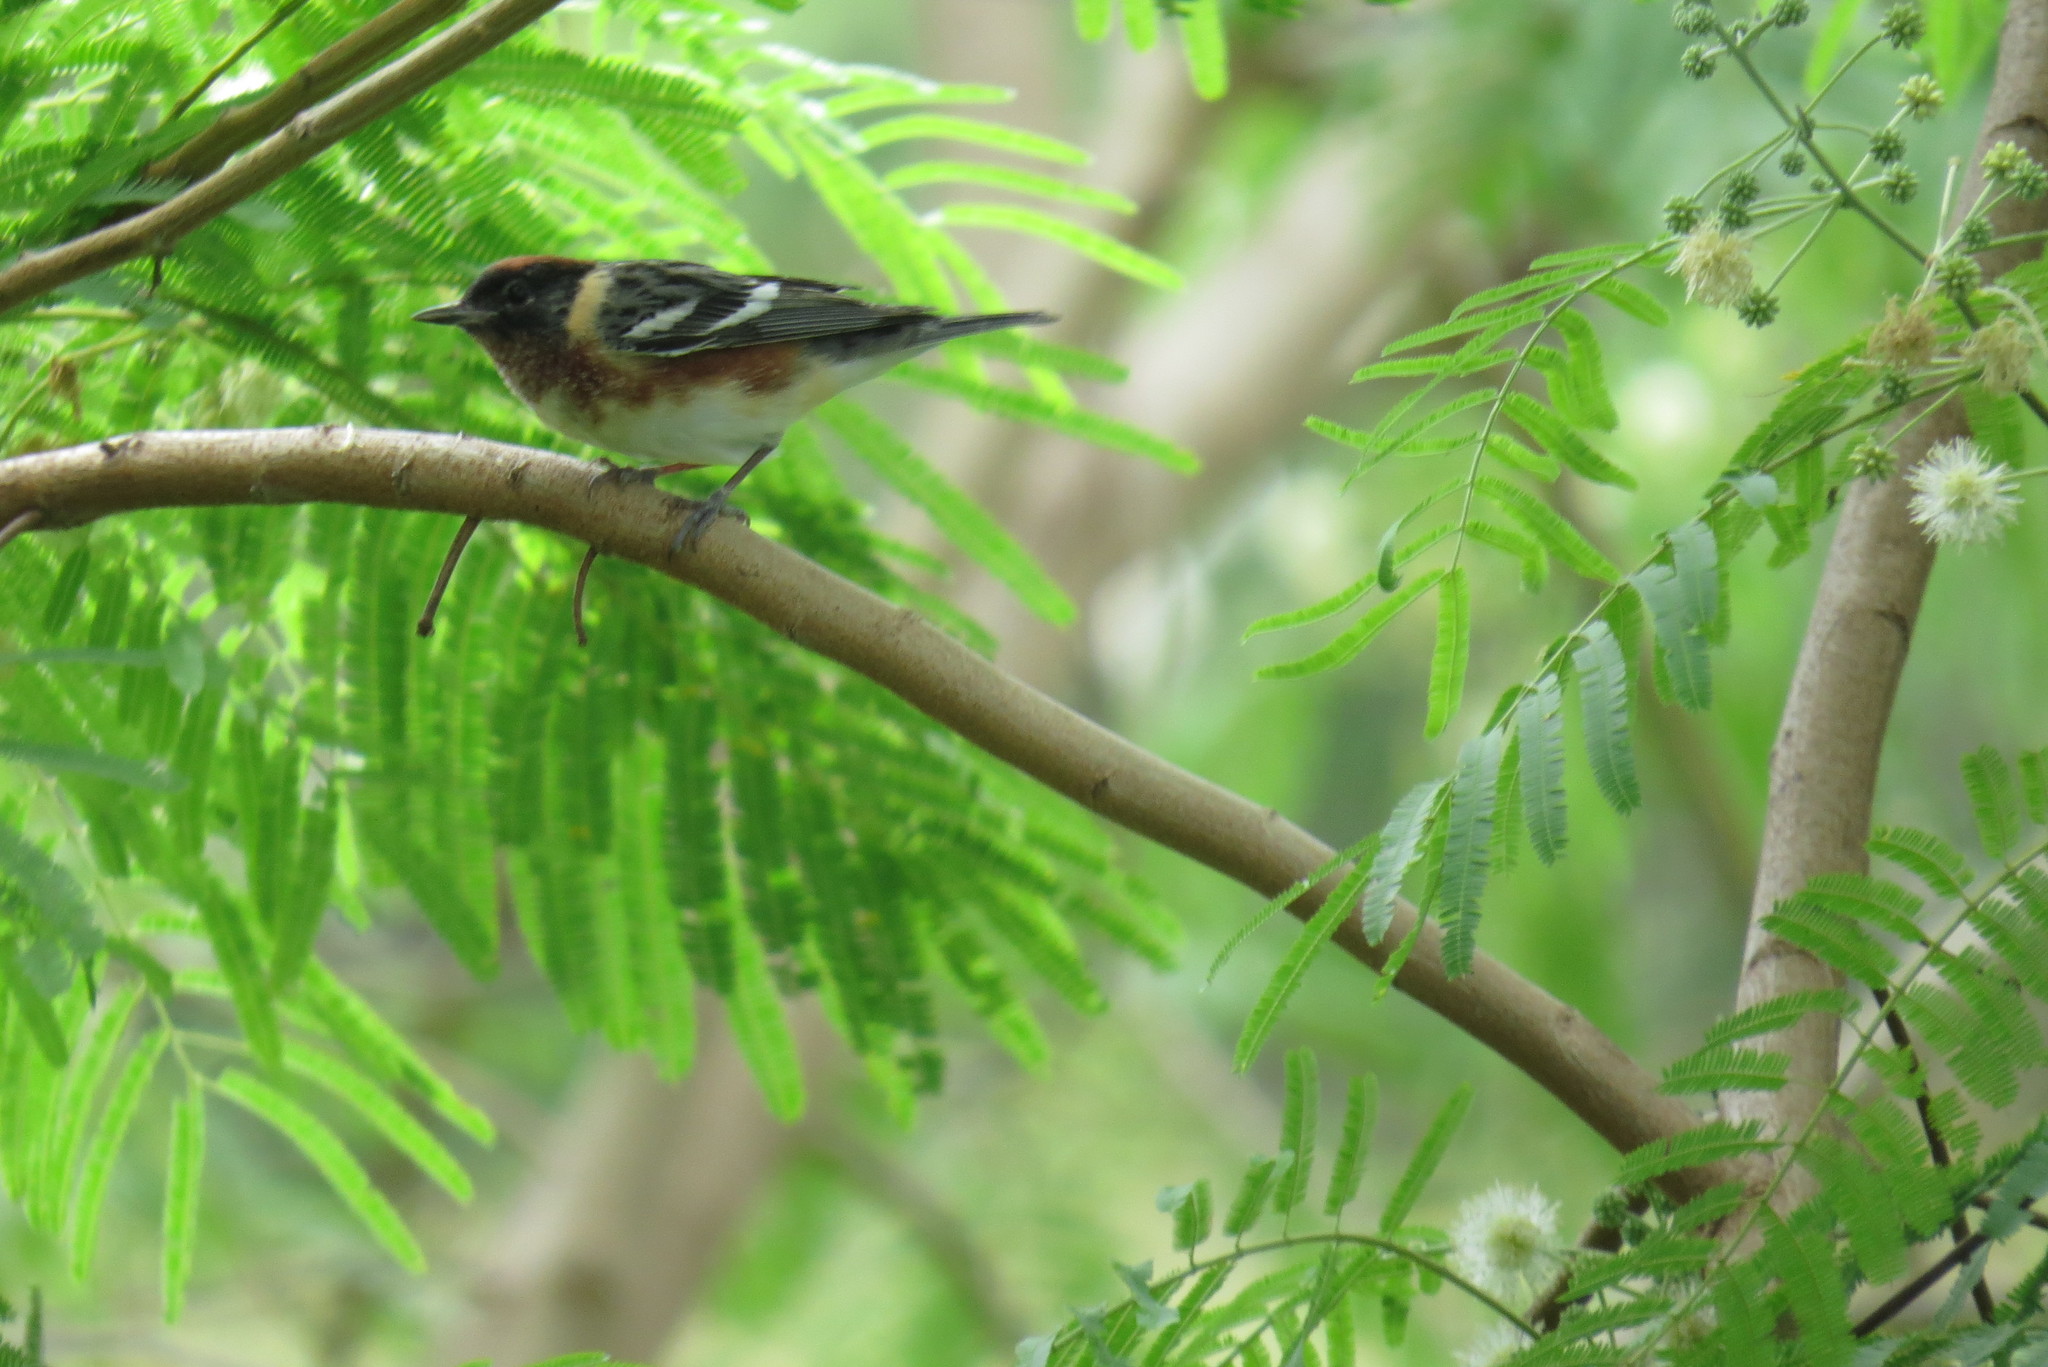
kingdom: Animalia
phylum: Chordata
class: Aves
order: Passeriformes
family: Parulidae
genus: Setophaga
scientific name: Setophaga castanea
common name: Bay-breasted warbler
